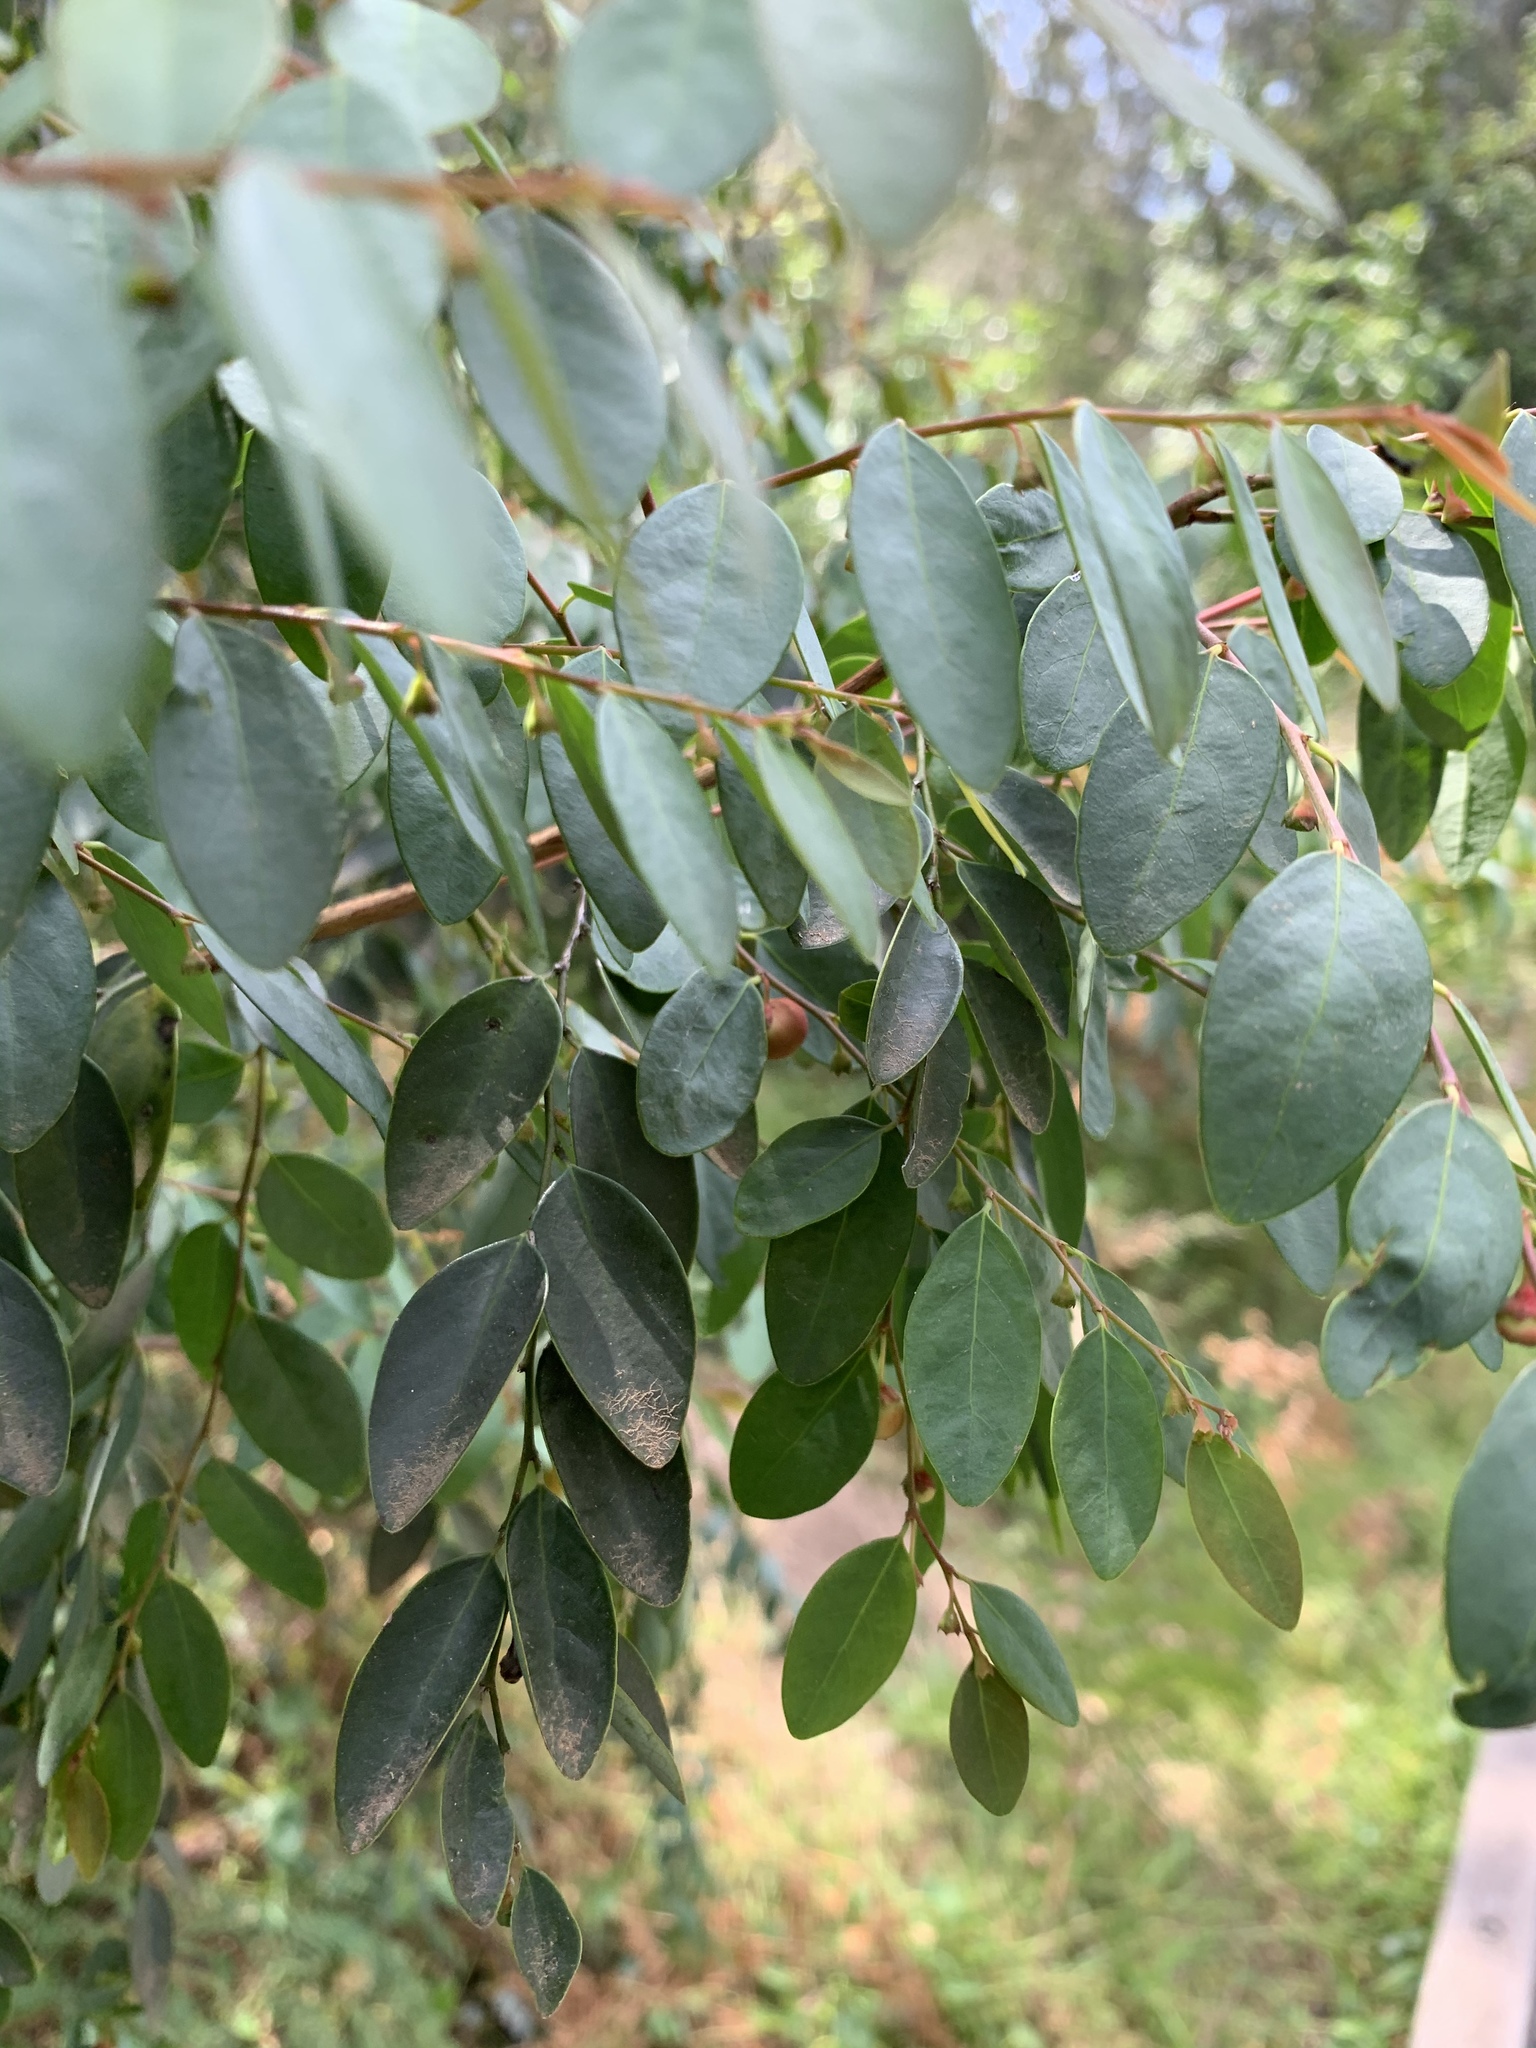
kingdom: Plantae
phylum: Tracheophyta
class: Magnoliopsida
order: Malpighiales
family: Phyllanthaceae
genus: Breynia
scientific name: Breynia oblongifolia
